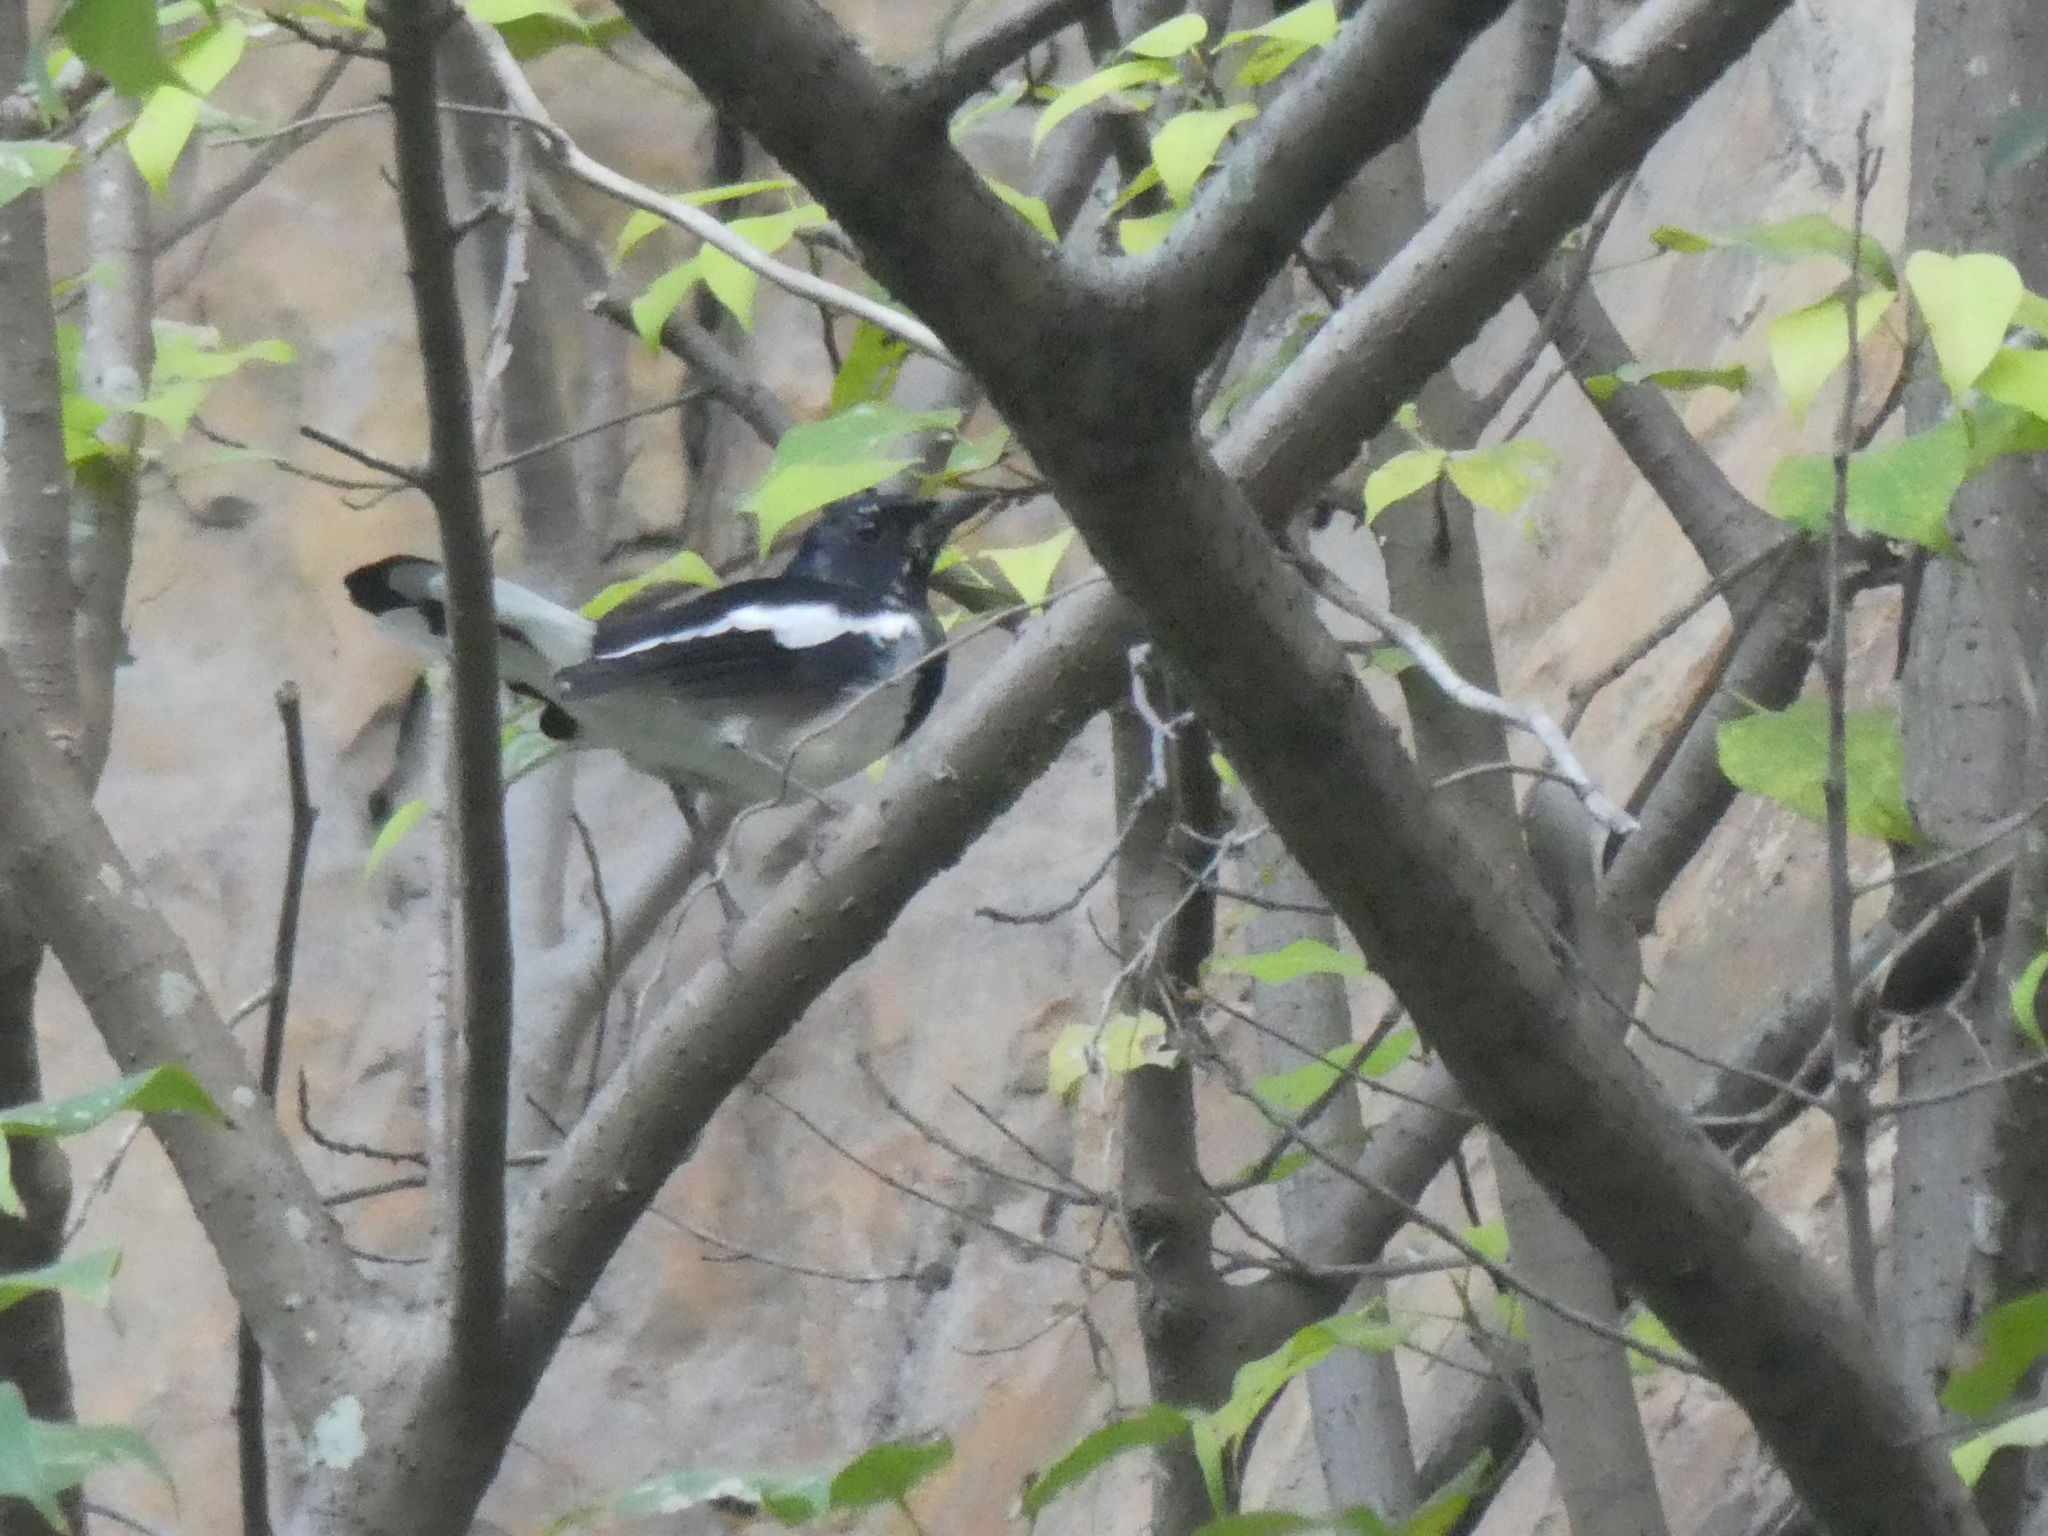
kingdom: Animalia
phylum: Chordata
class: Aves
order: Passeriformes
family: Muscicapidae
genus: Copsychus
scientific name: Copsychus saularis
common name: Oriental magpie-robin
